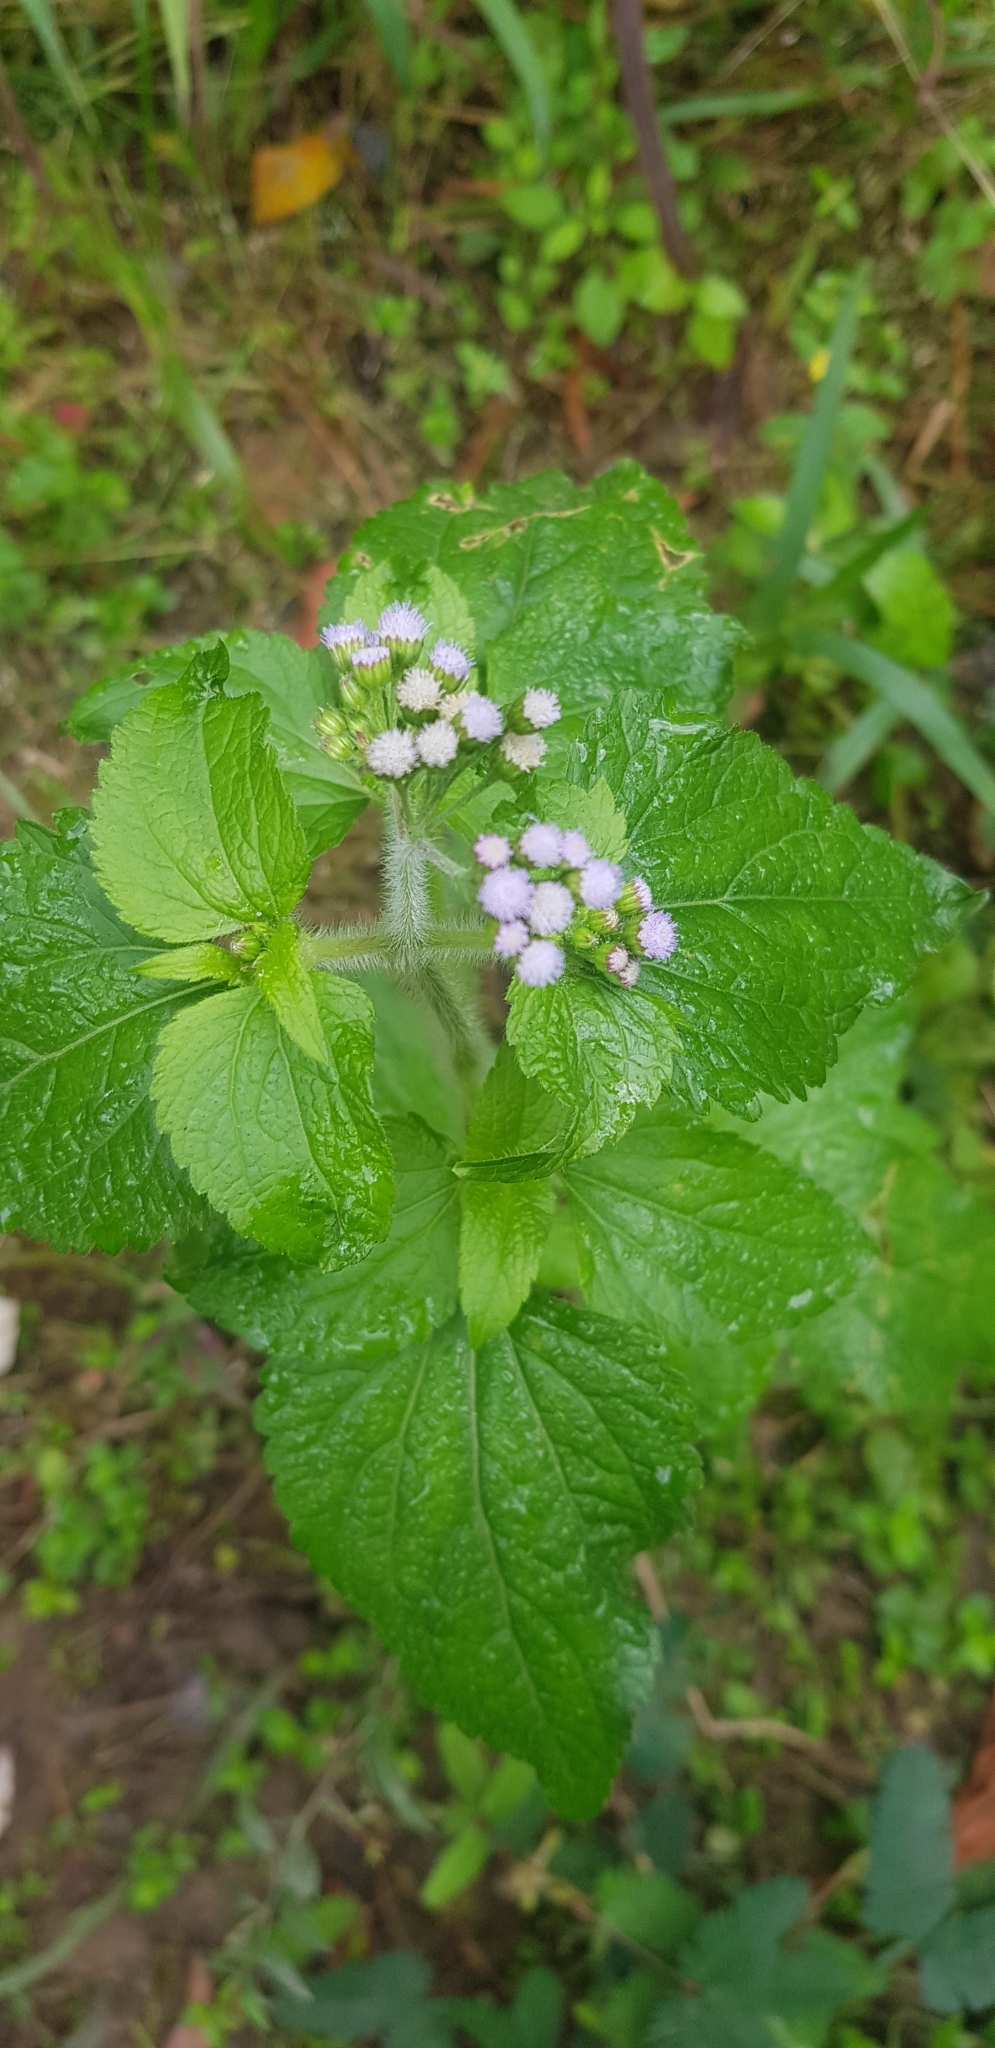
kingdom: Plantae
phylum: Tracheophyta
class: Magnoliopsida
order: Asterales
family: Asteraceae
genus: Ageratum
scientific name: Ageratum conyzoides
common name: Tropical whiteweed
